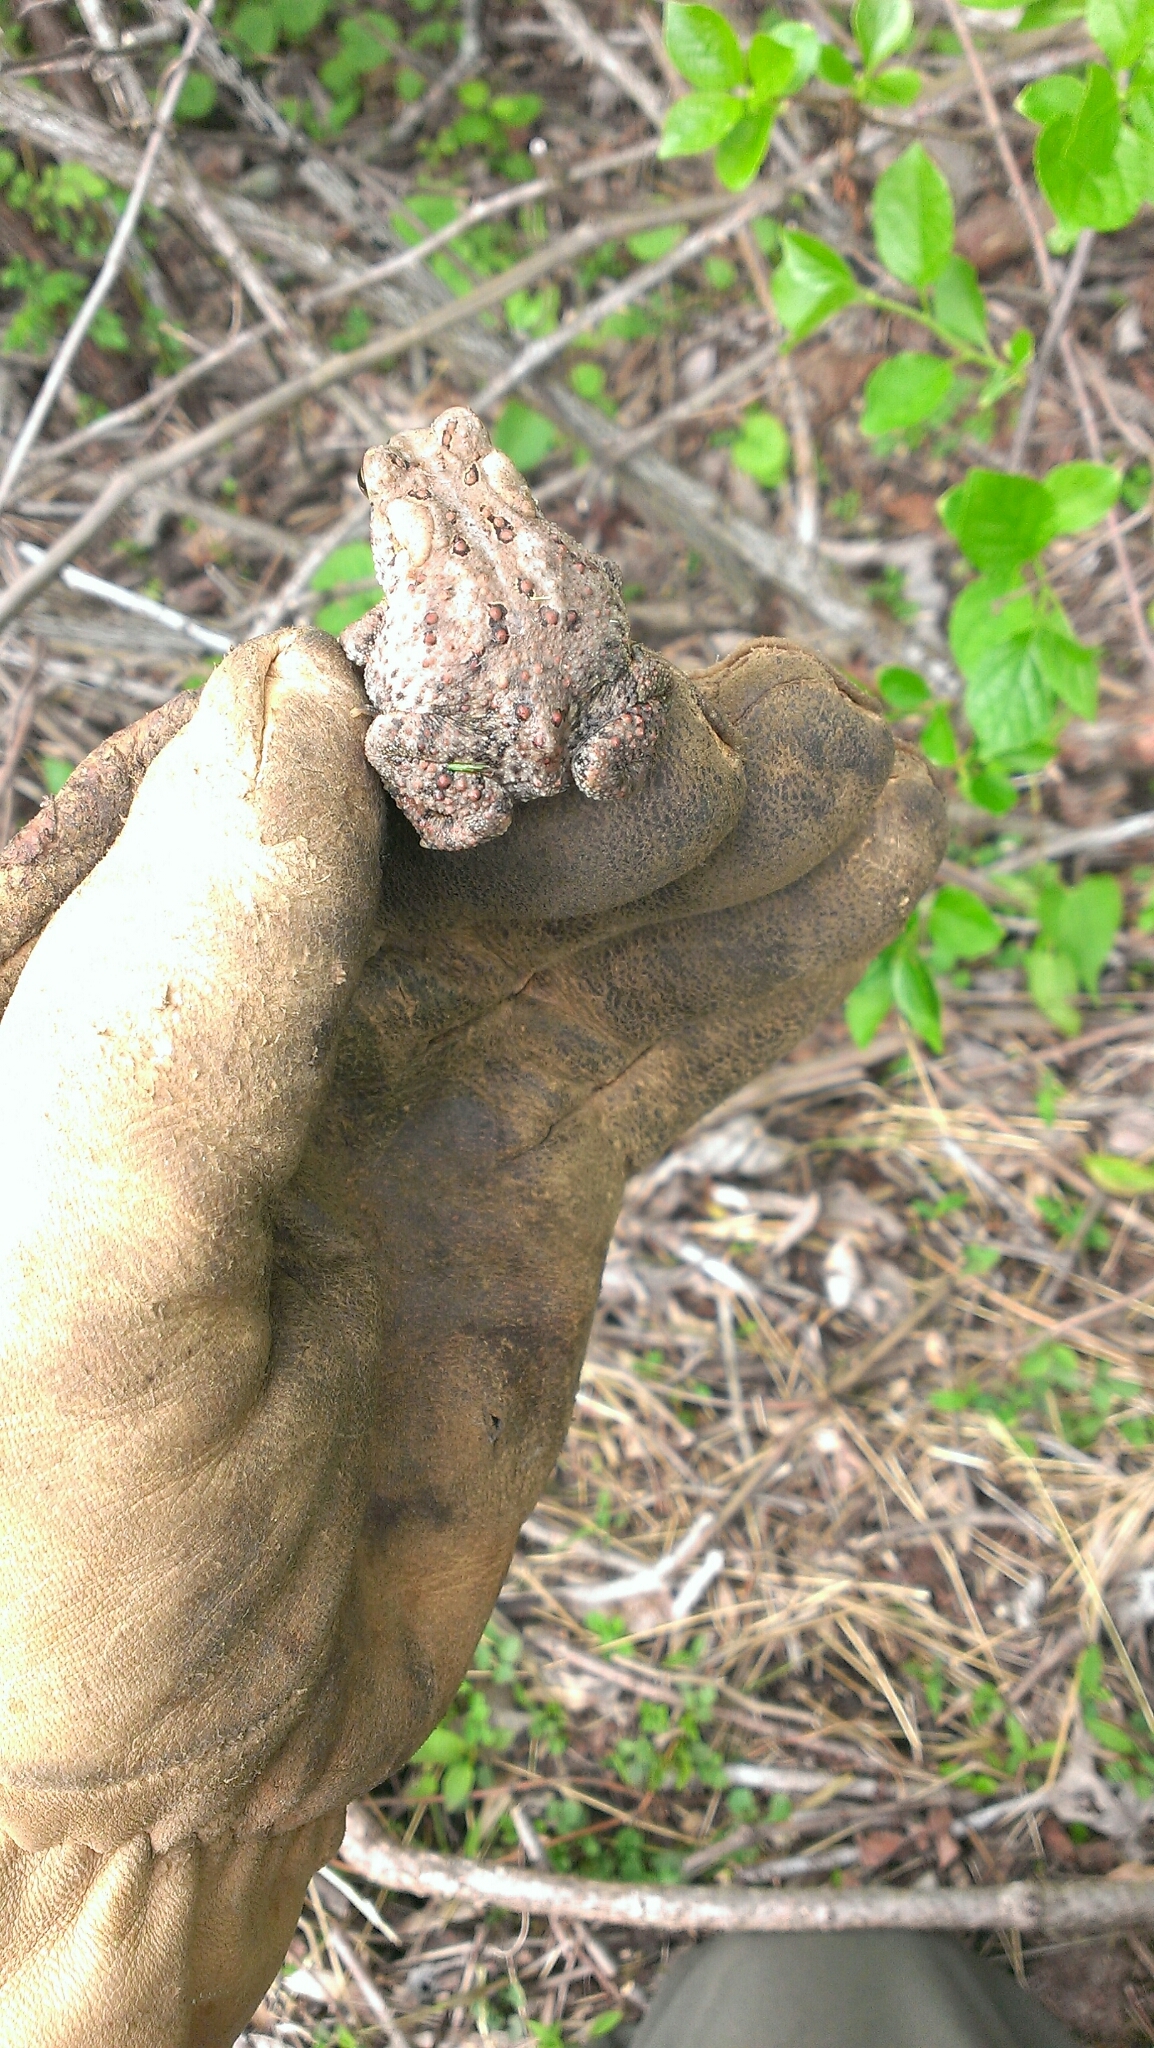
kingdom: Animalia
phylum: Chordata
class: Amphibia
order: Anura
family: Bufonidae
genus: Anaxyrus
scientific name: Anaxyrus americanus
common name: American toad
